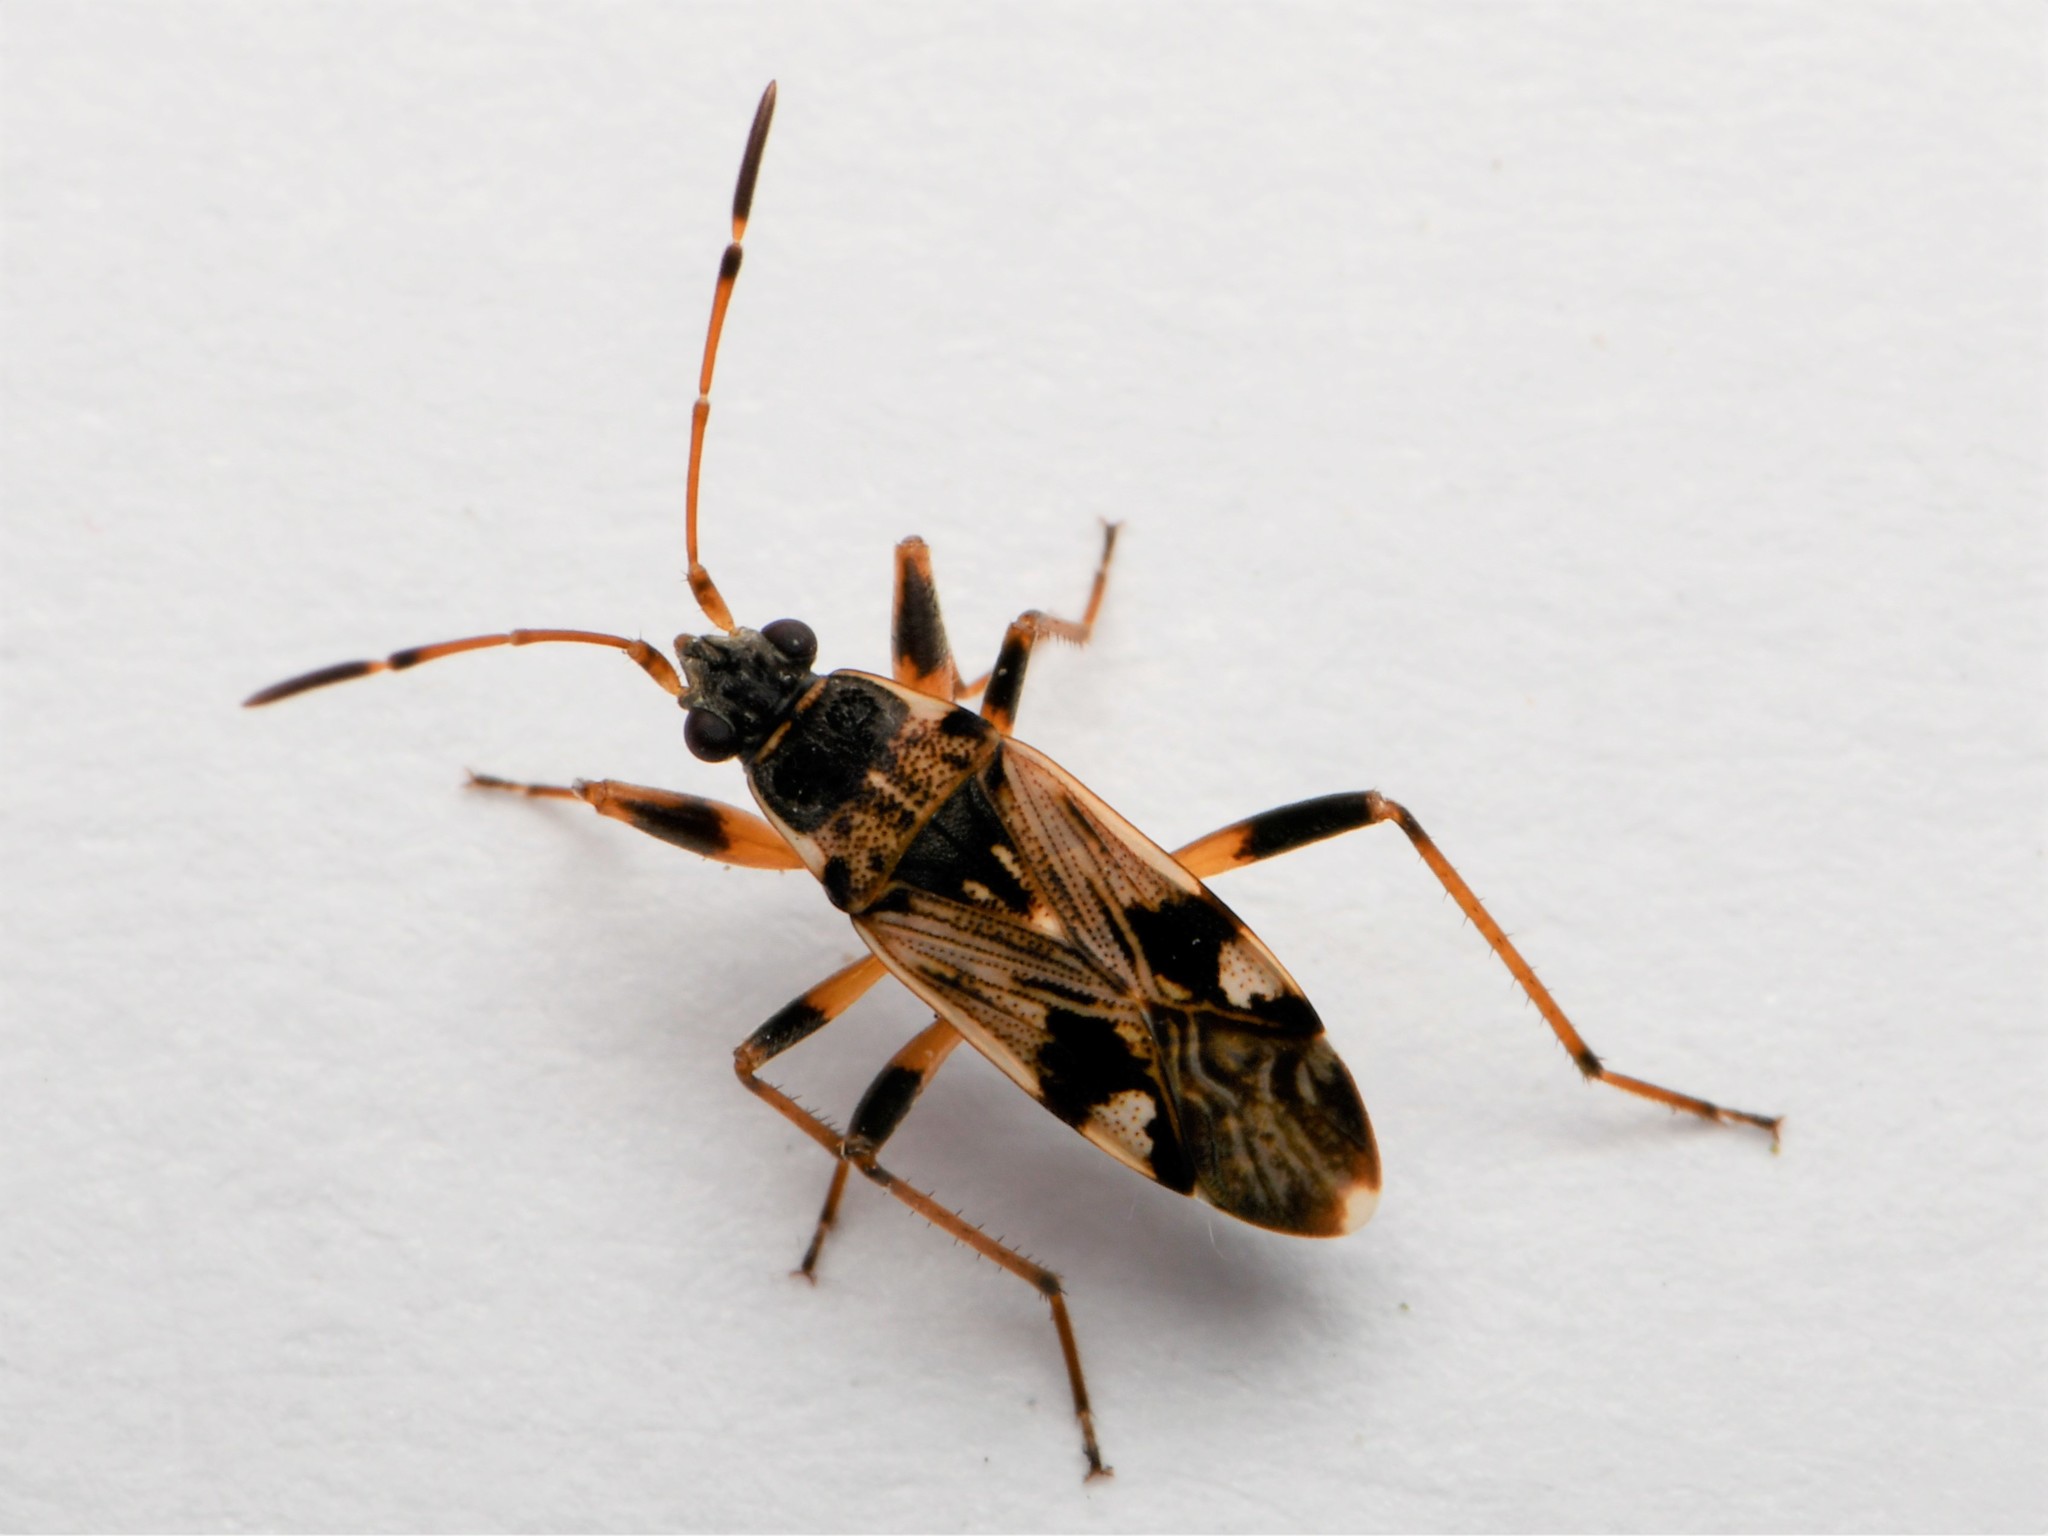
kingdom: Animalia
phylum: Arthropoda
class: Insecta
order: Hemiptera
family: Rhyparochromidae
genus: Beosus
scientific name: Beosus maritimus
